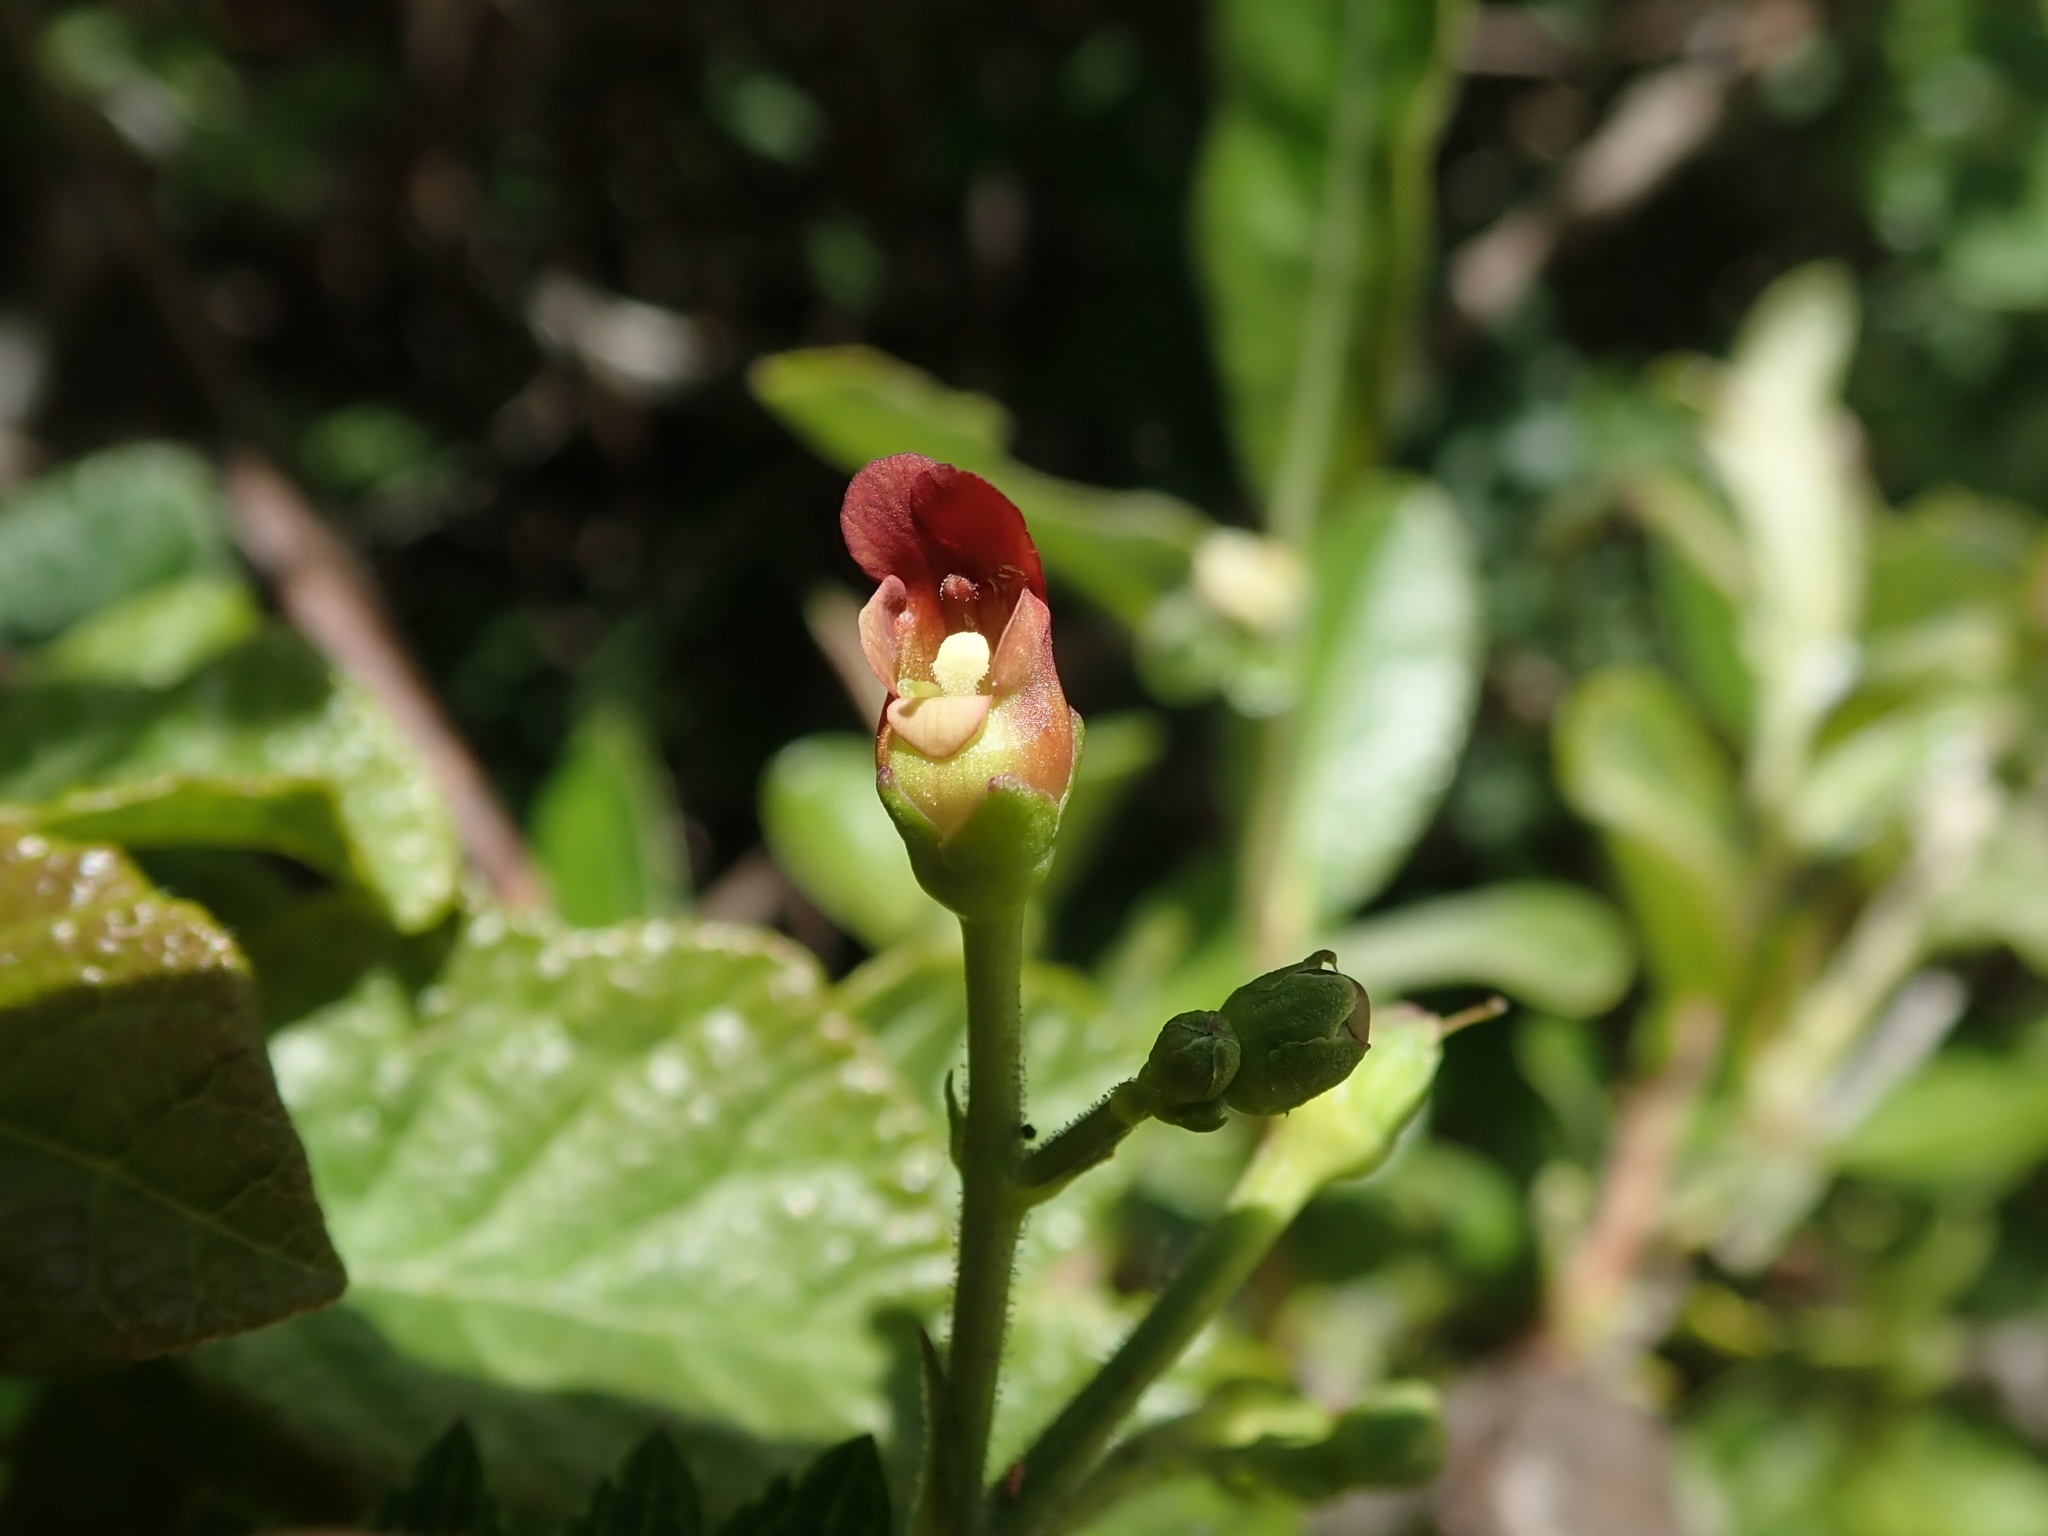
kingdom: Plantae
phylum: Tracheophyta
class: Magnoliopsida
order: Lamiales
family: Scrophulariaceae
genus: Scrophularia
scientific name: Scrophularia californica
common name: California figwort
